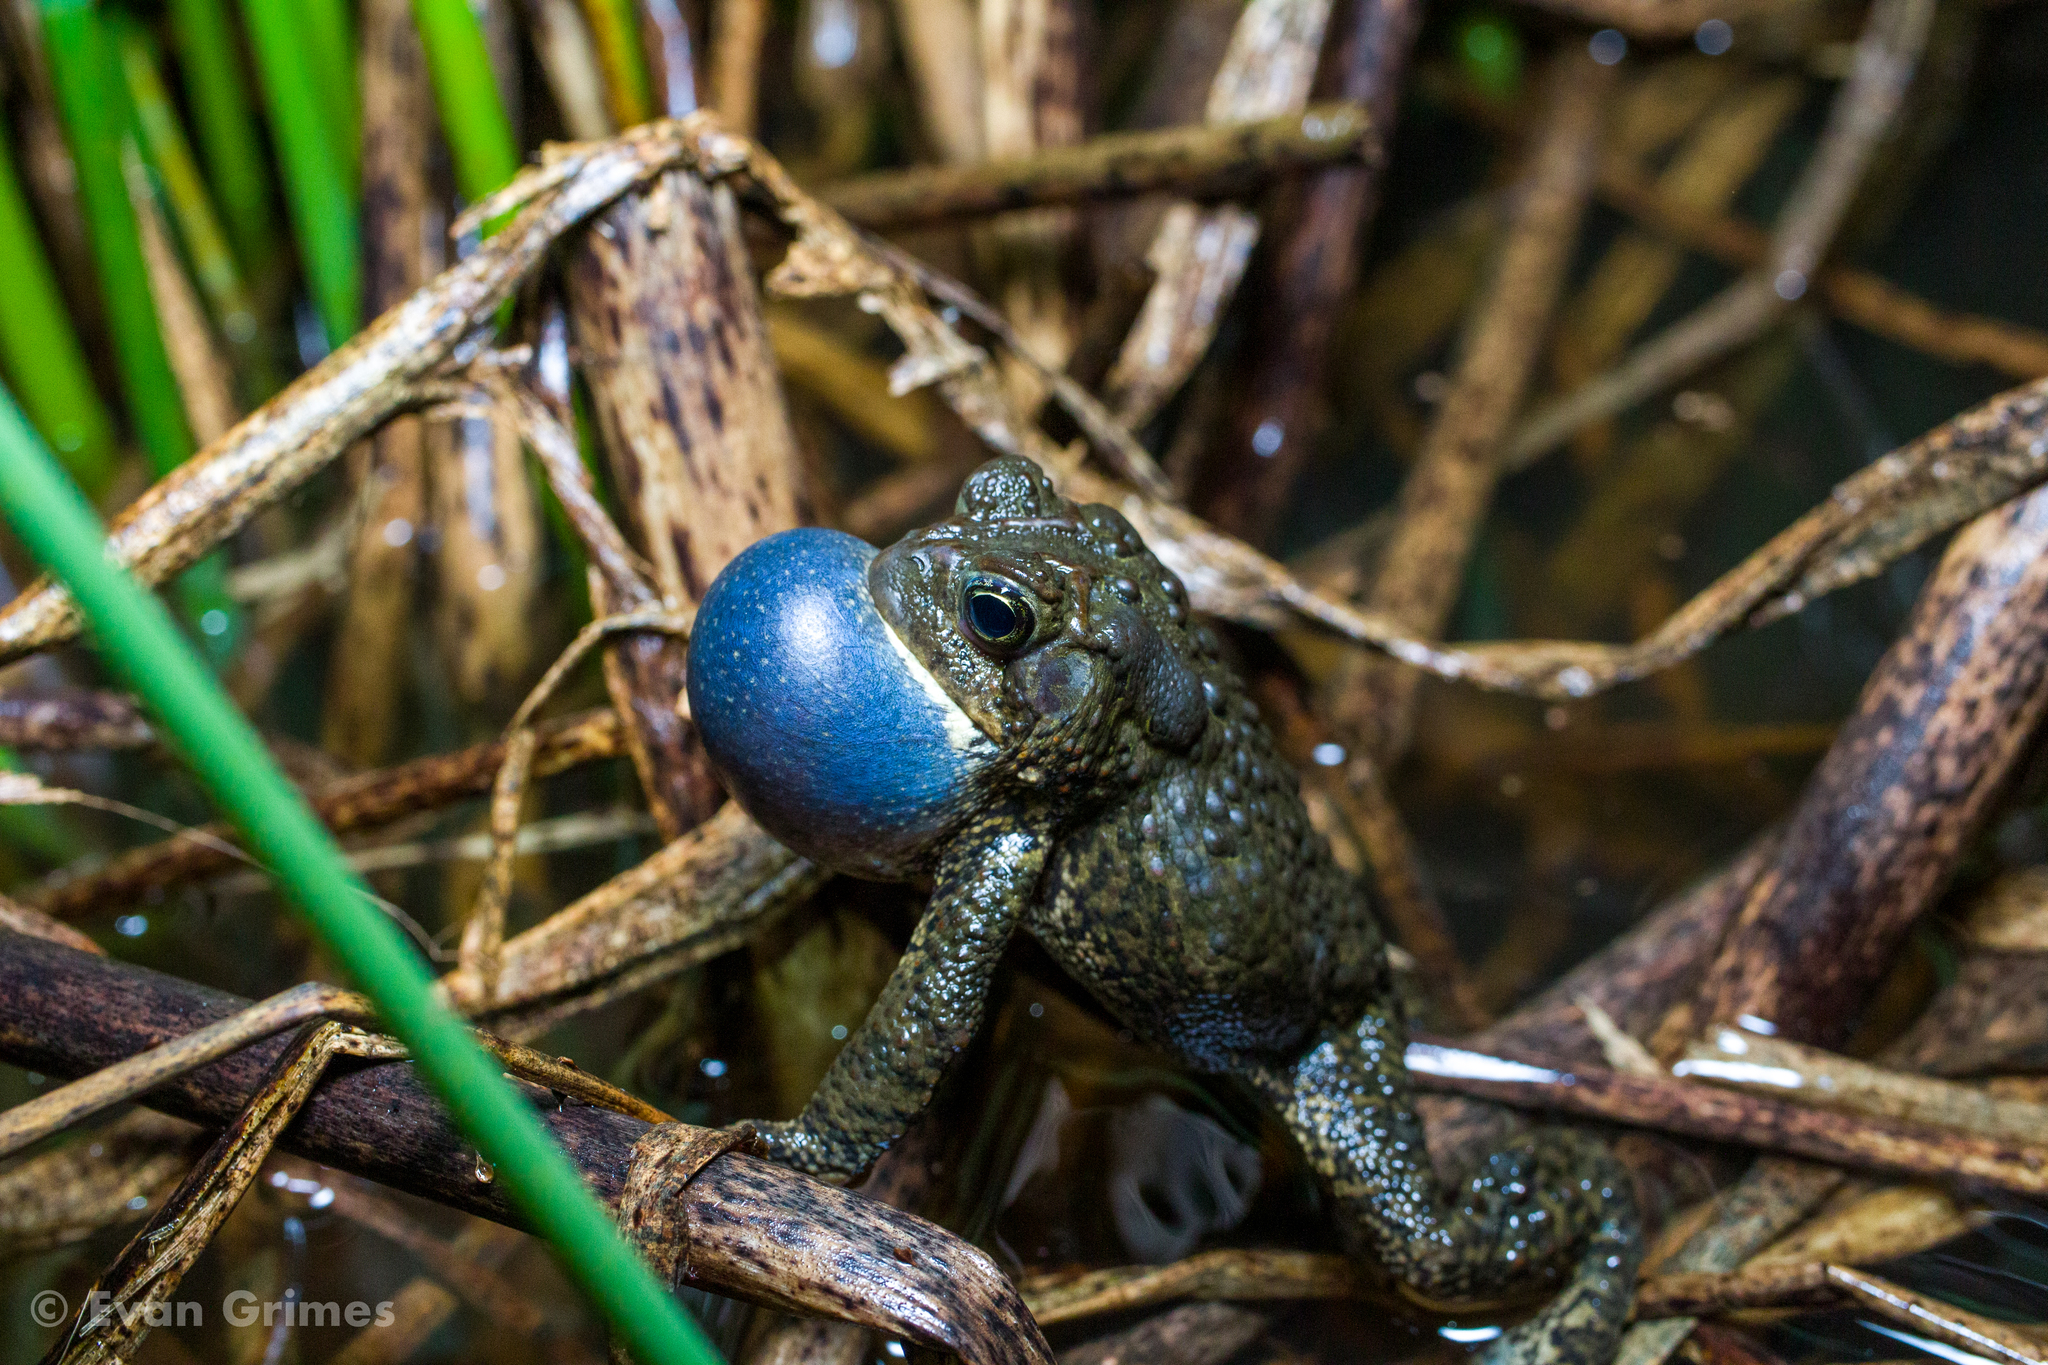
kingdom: Animalia
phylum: Chordata
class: Amphibia
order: Anura
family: Bufonidae
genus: Anaxyrus
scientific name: Anaxyrus americanus
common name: American toad
